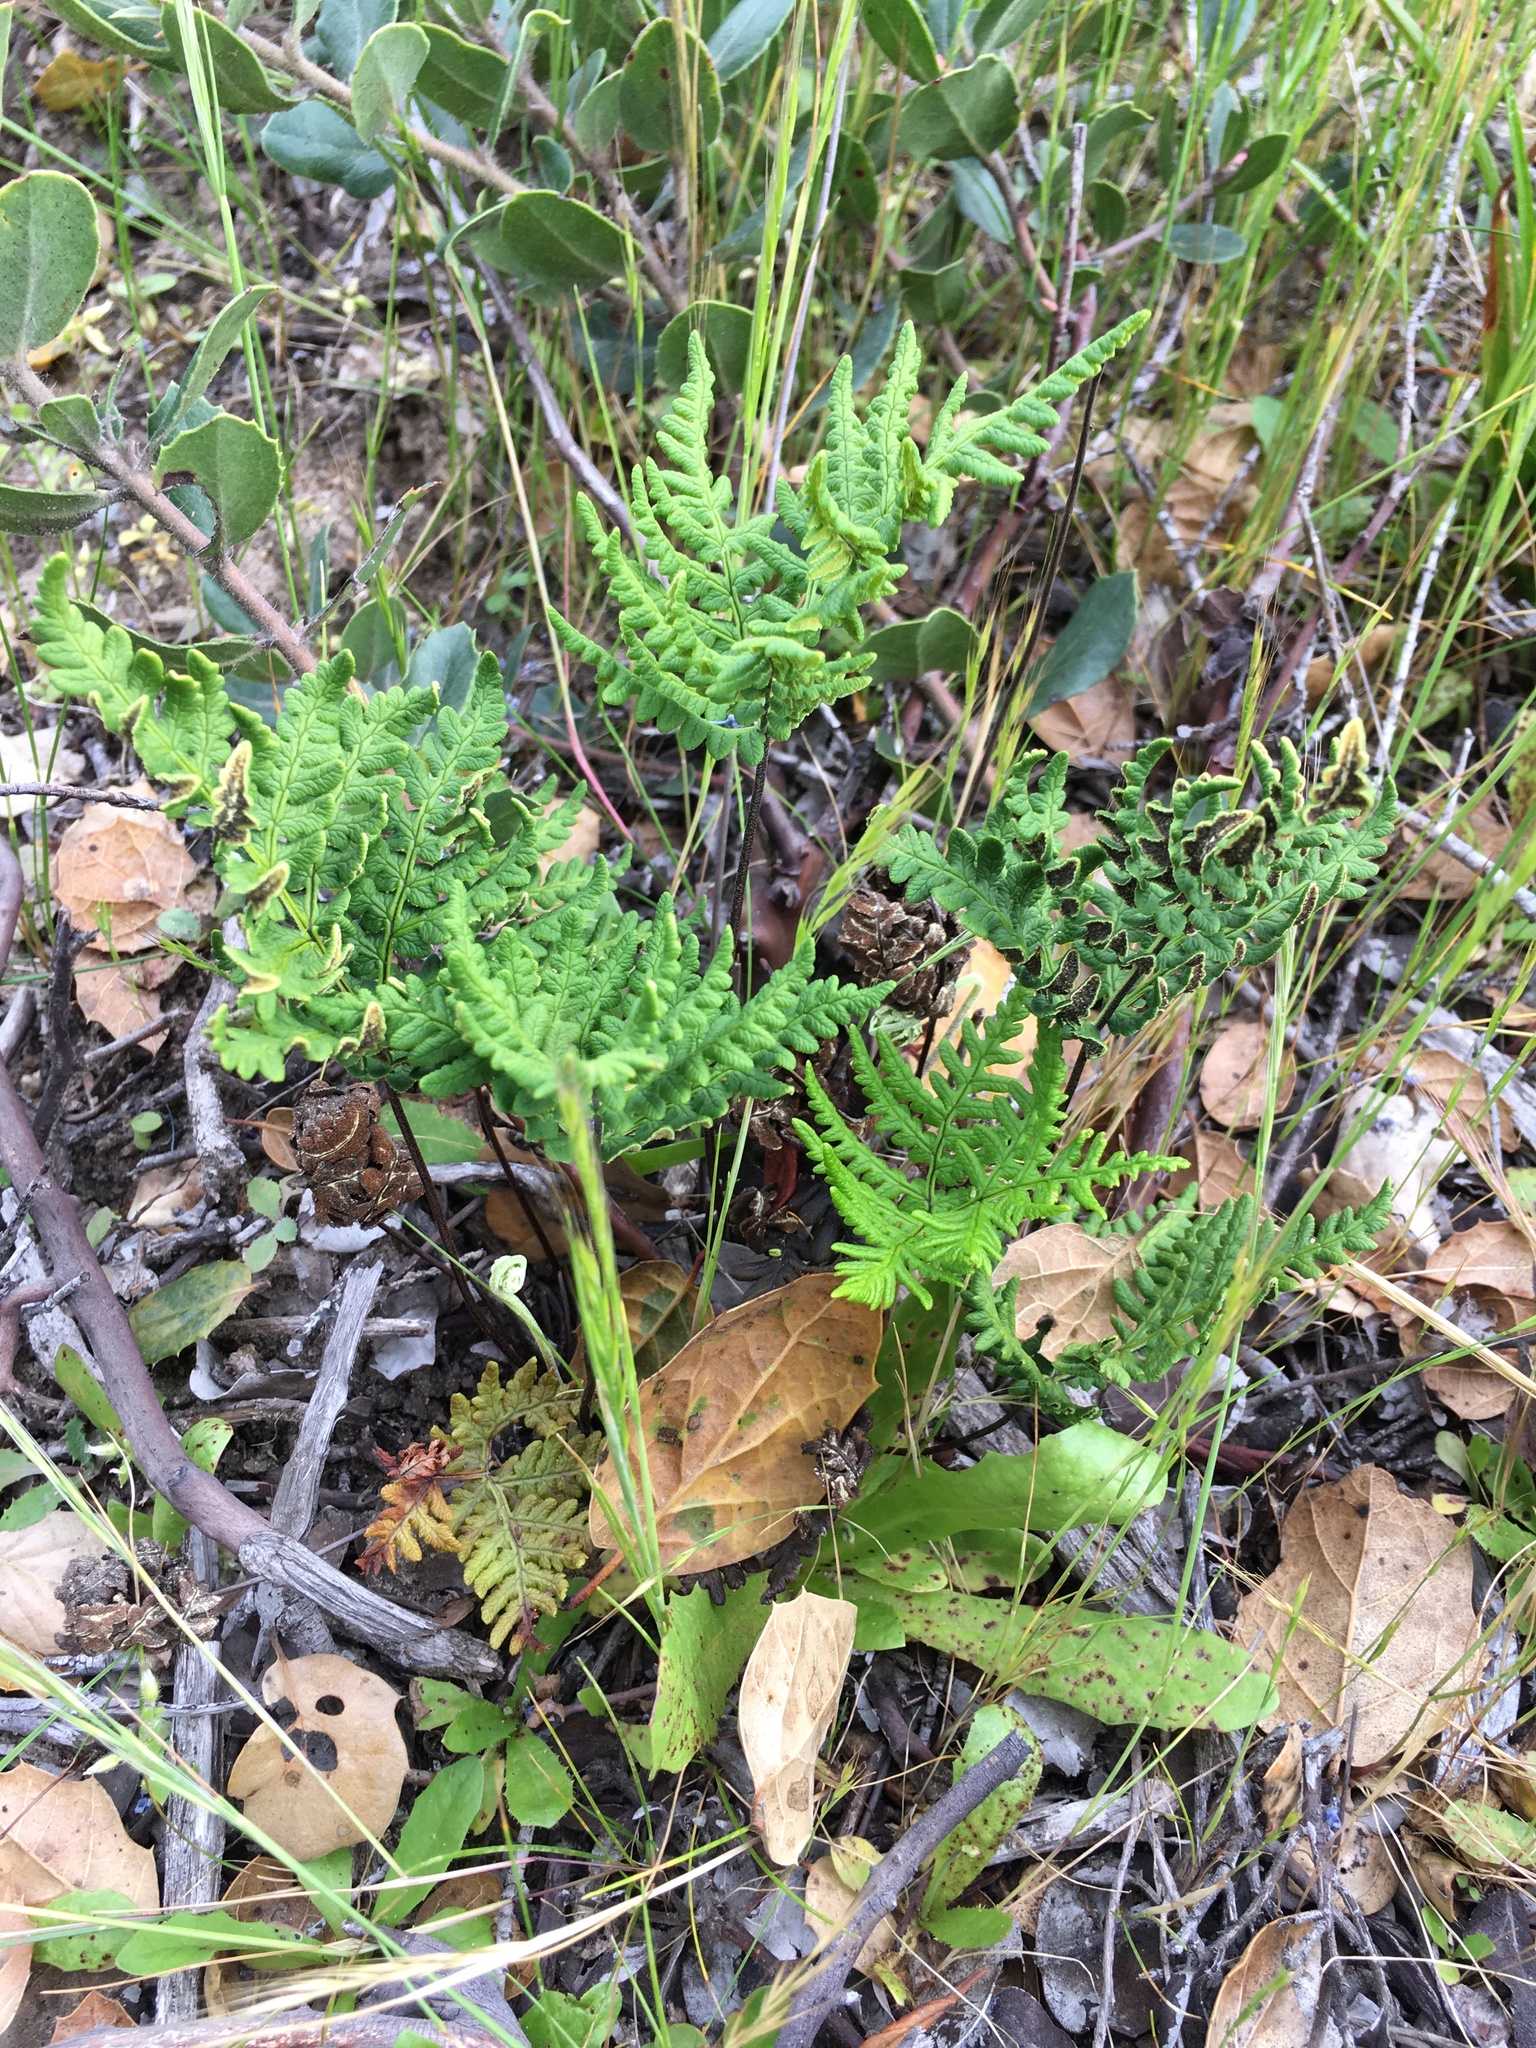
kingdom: Plantae
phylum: Tracheophyta
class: Polypodiopsida
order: Polypodiales
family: Pteridaceae
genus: Pentagramma
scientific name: Pentagramma triangularis
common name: Gold fern
